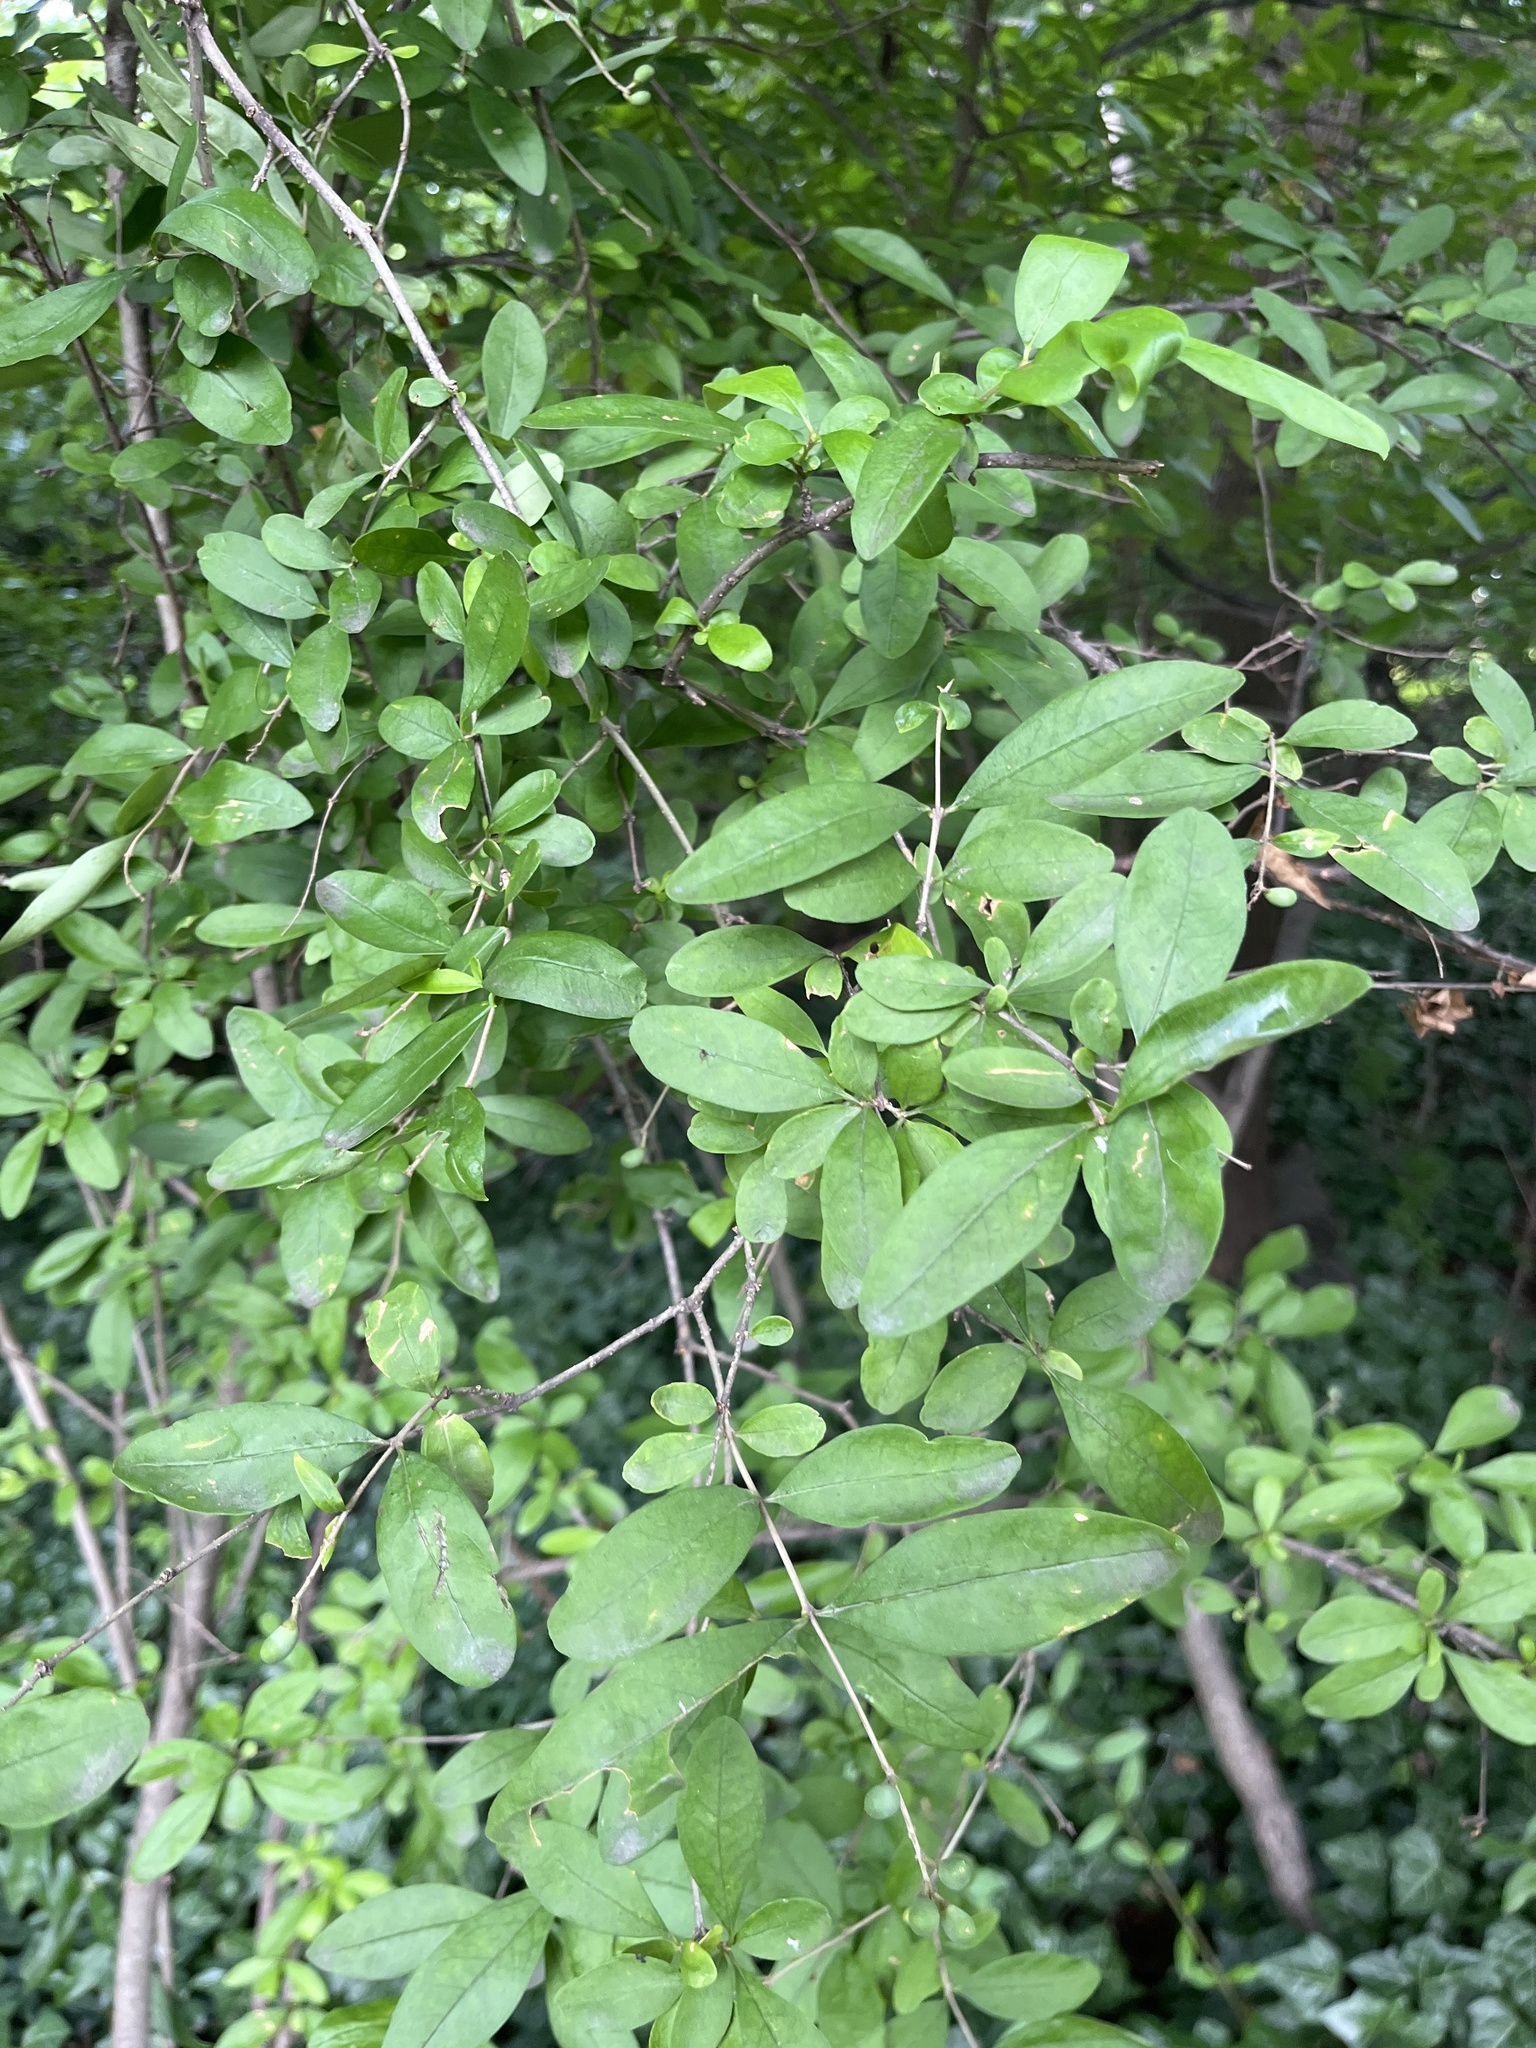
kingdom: Plantae
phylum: Tracheophyta
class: Magnoliopsida
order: Lamiales
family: Oleaceae
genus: Ligustrum
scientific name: Ligustrum obtusifolium
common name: Border privet
